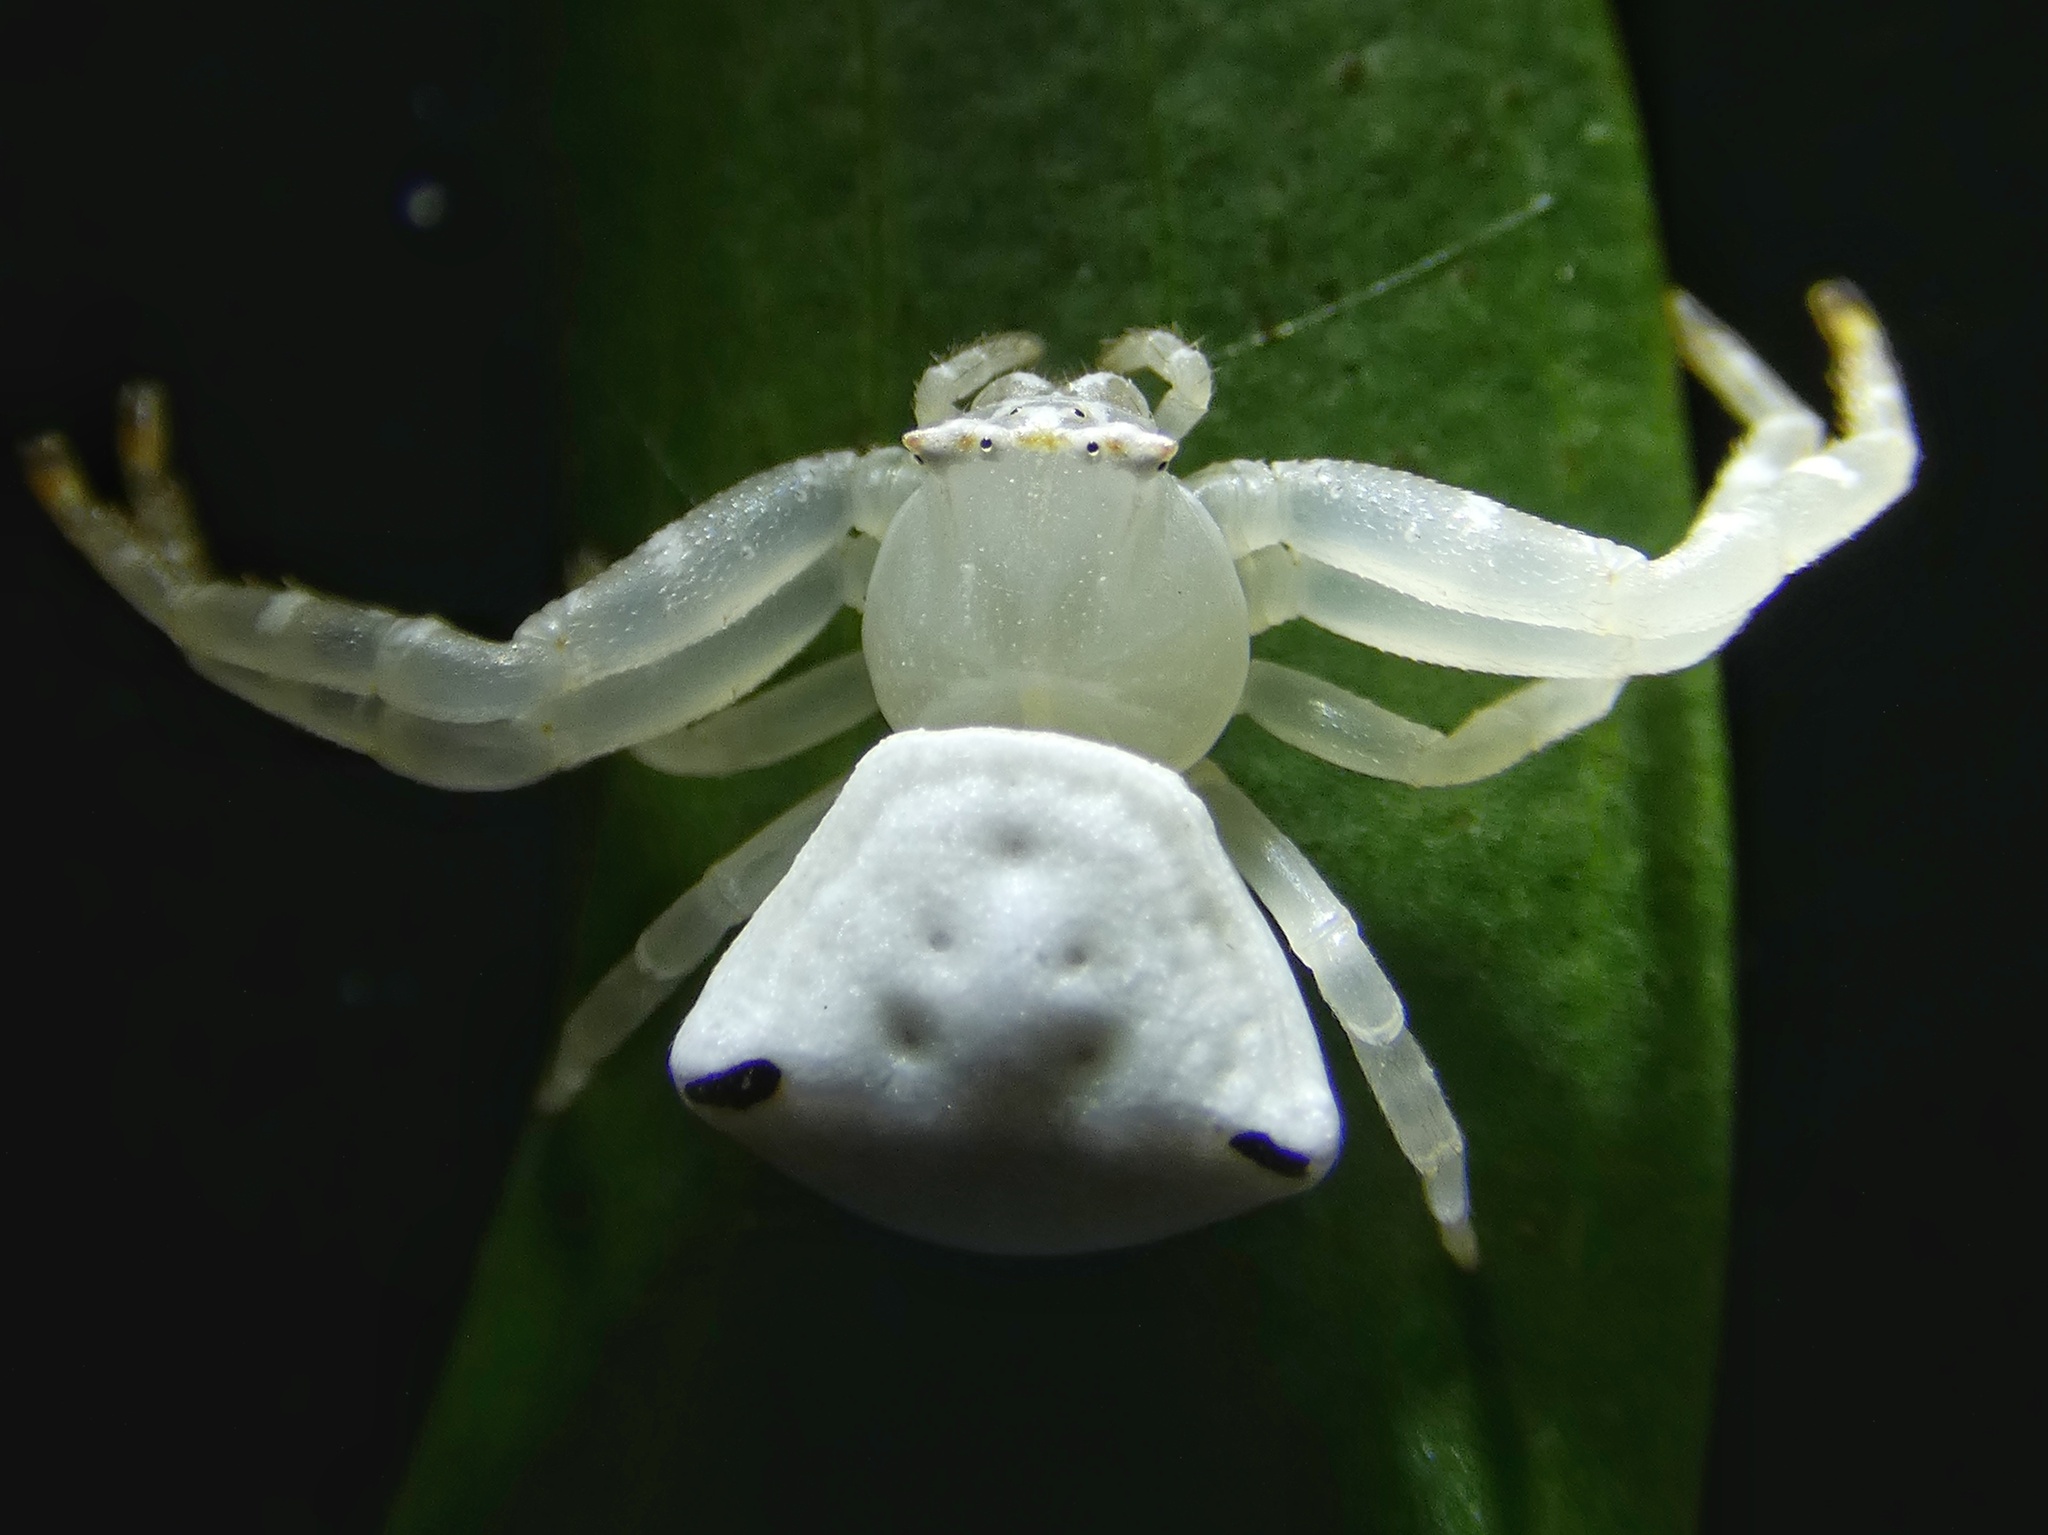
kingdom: Animalia
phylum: Arthropoda
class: Arachnida
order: Araneae
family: Thomisidae
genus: Thomisus
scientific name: Thomisus spectabilis
